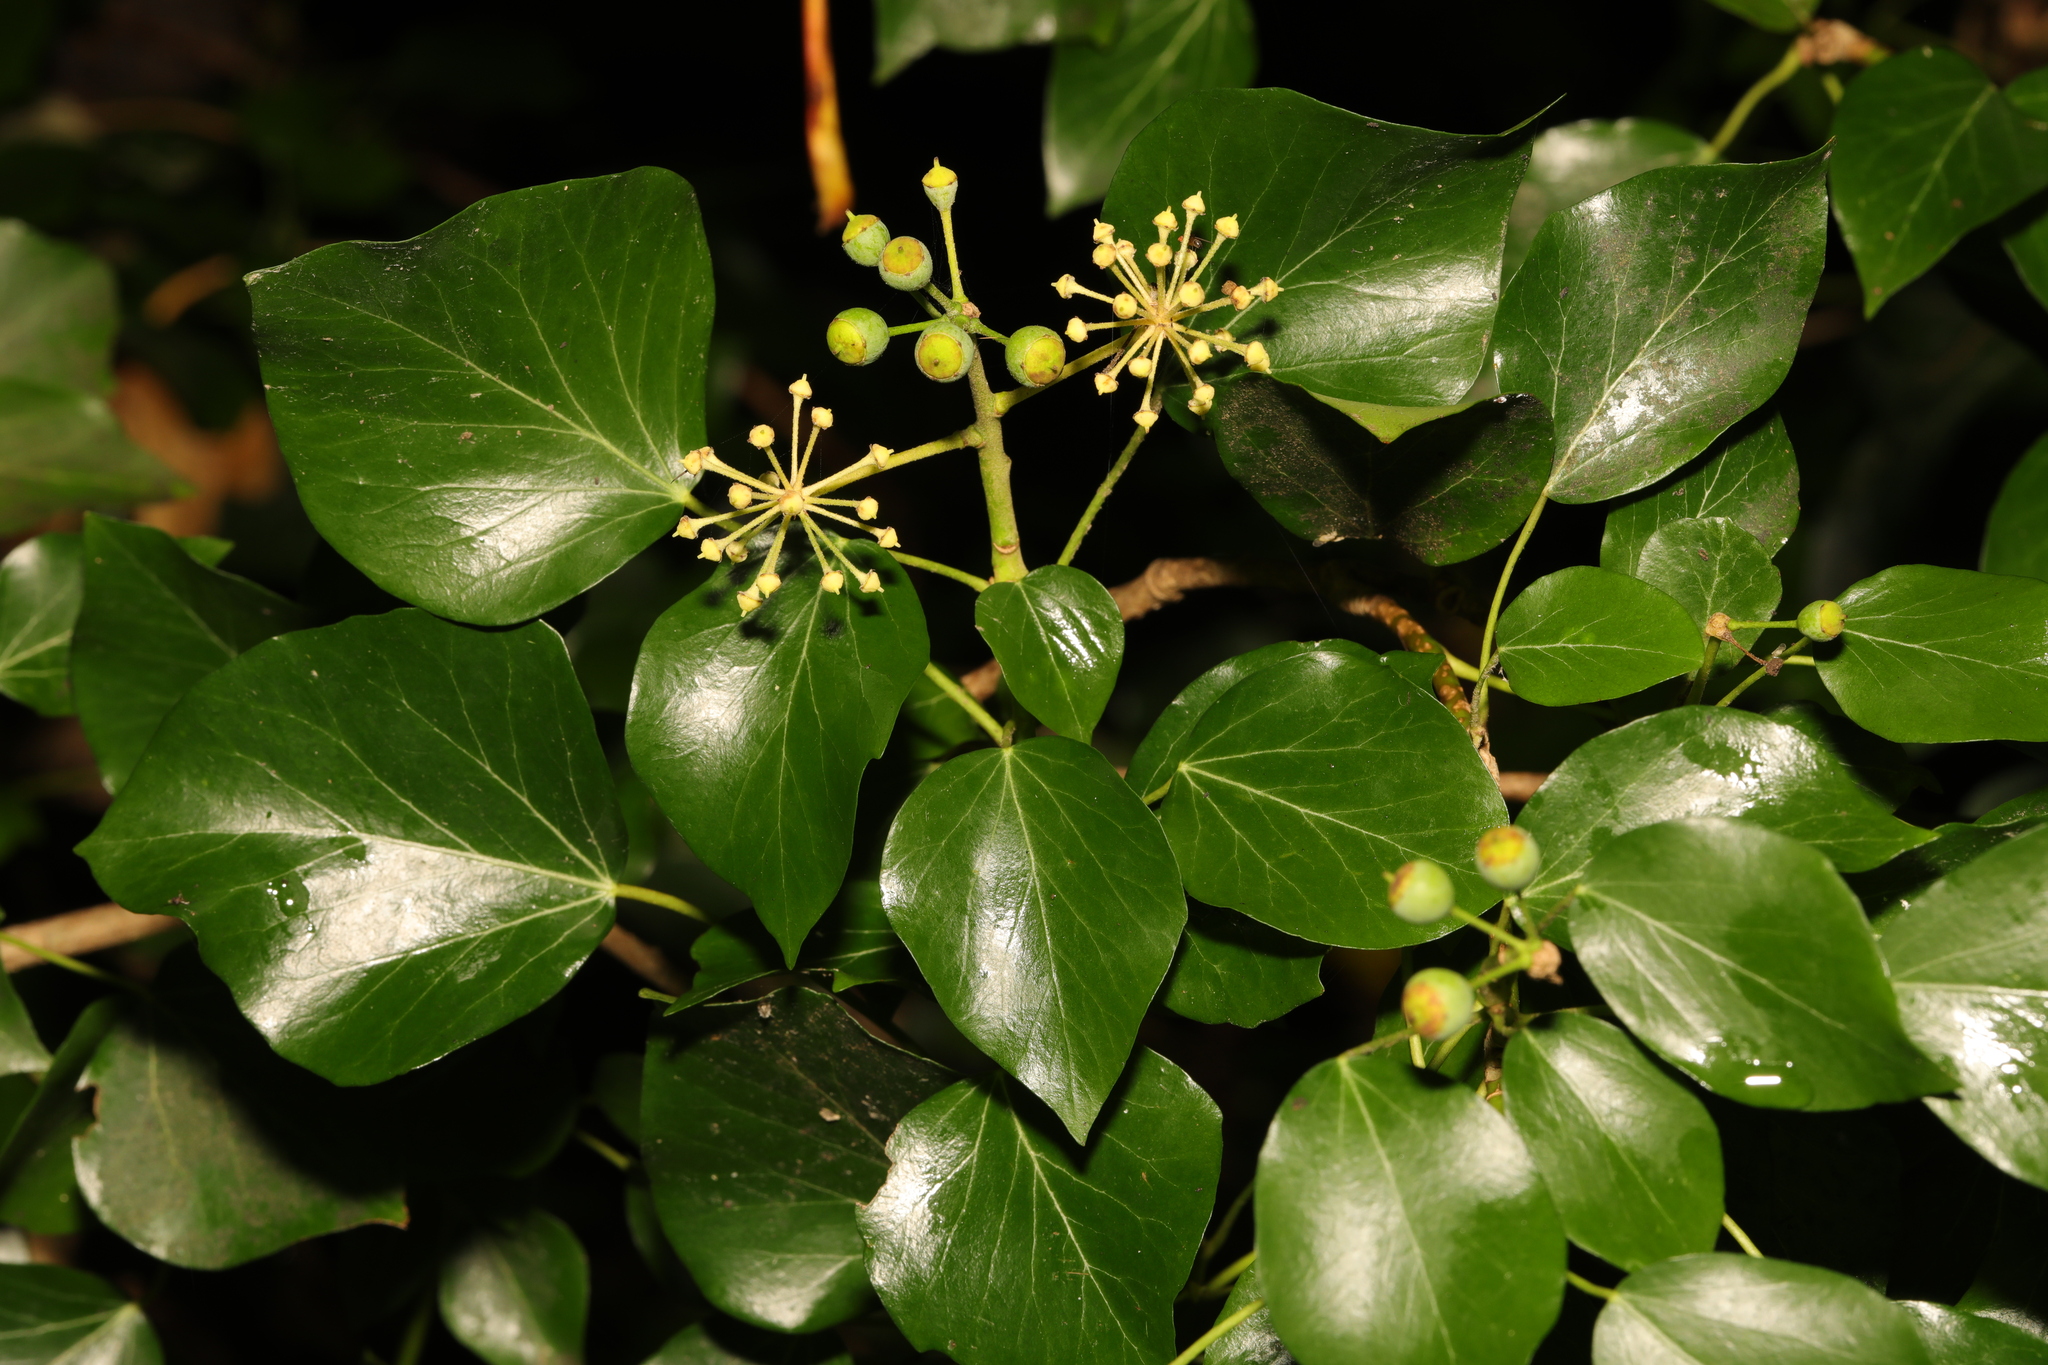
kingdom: Plantae
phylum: Tracheophyta
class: Magnoliopsida
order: Apiales
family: Araliaceae
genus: Hedera
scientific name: Hedera helix
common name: Ivy
